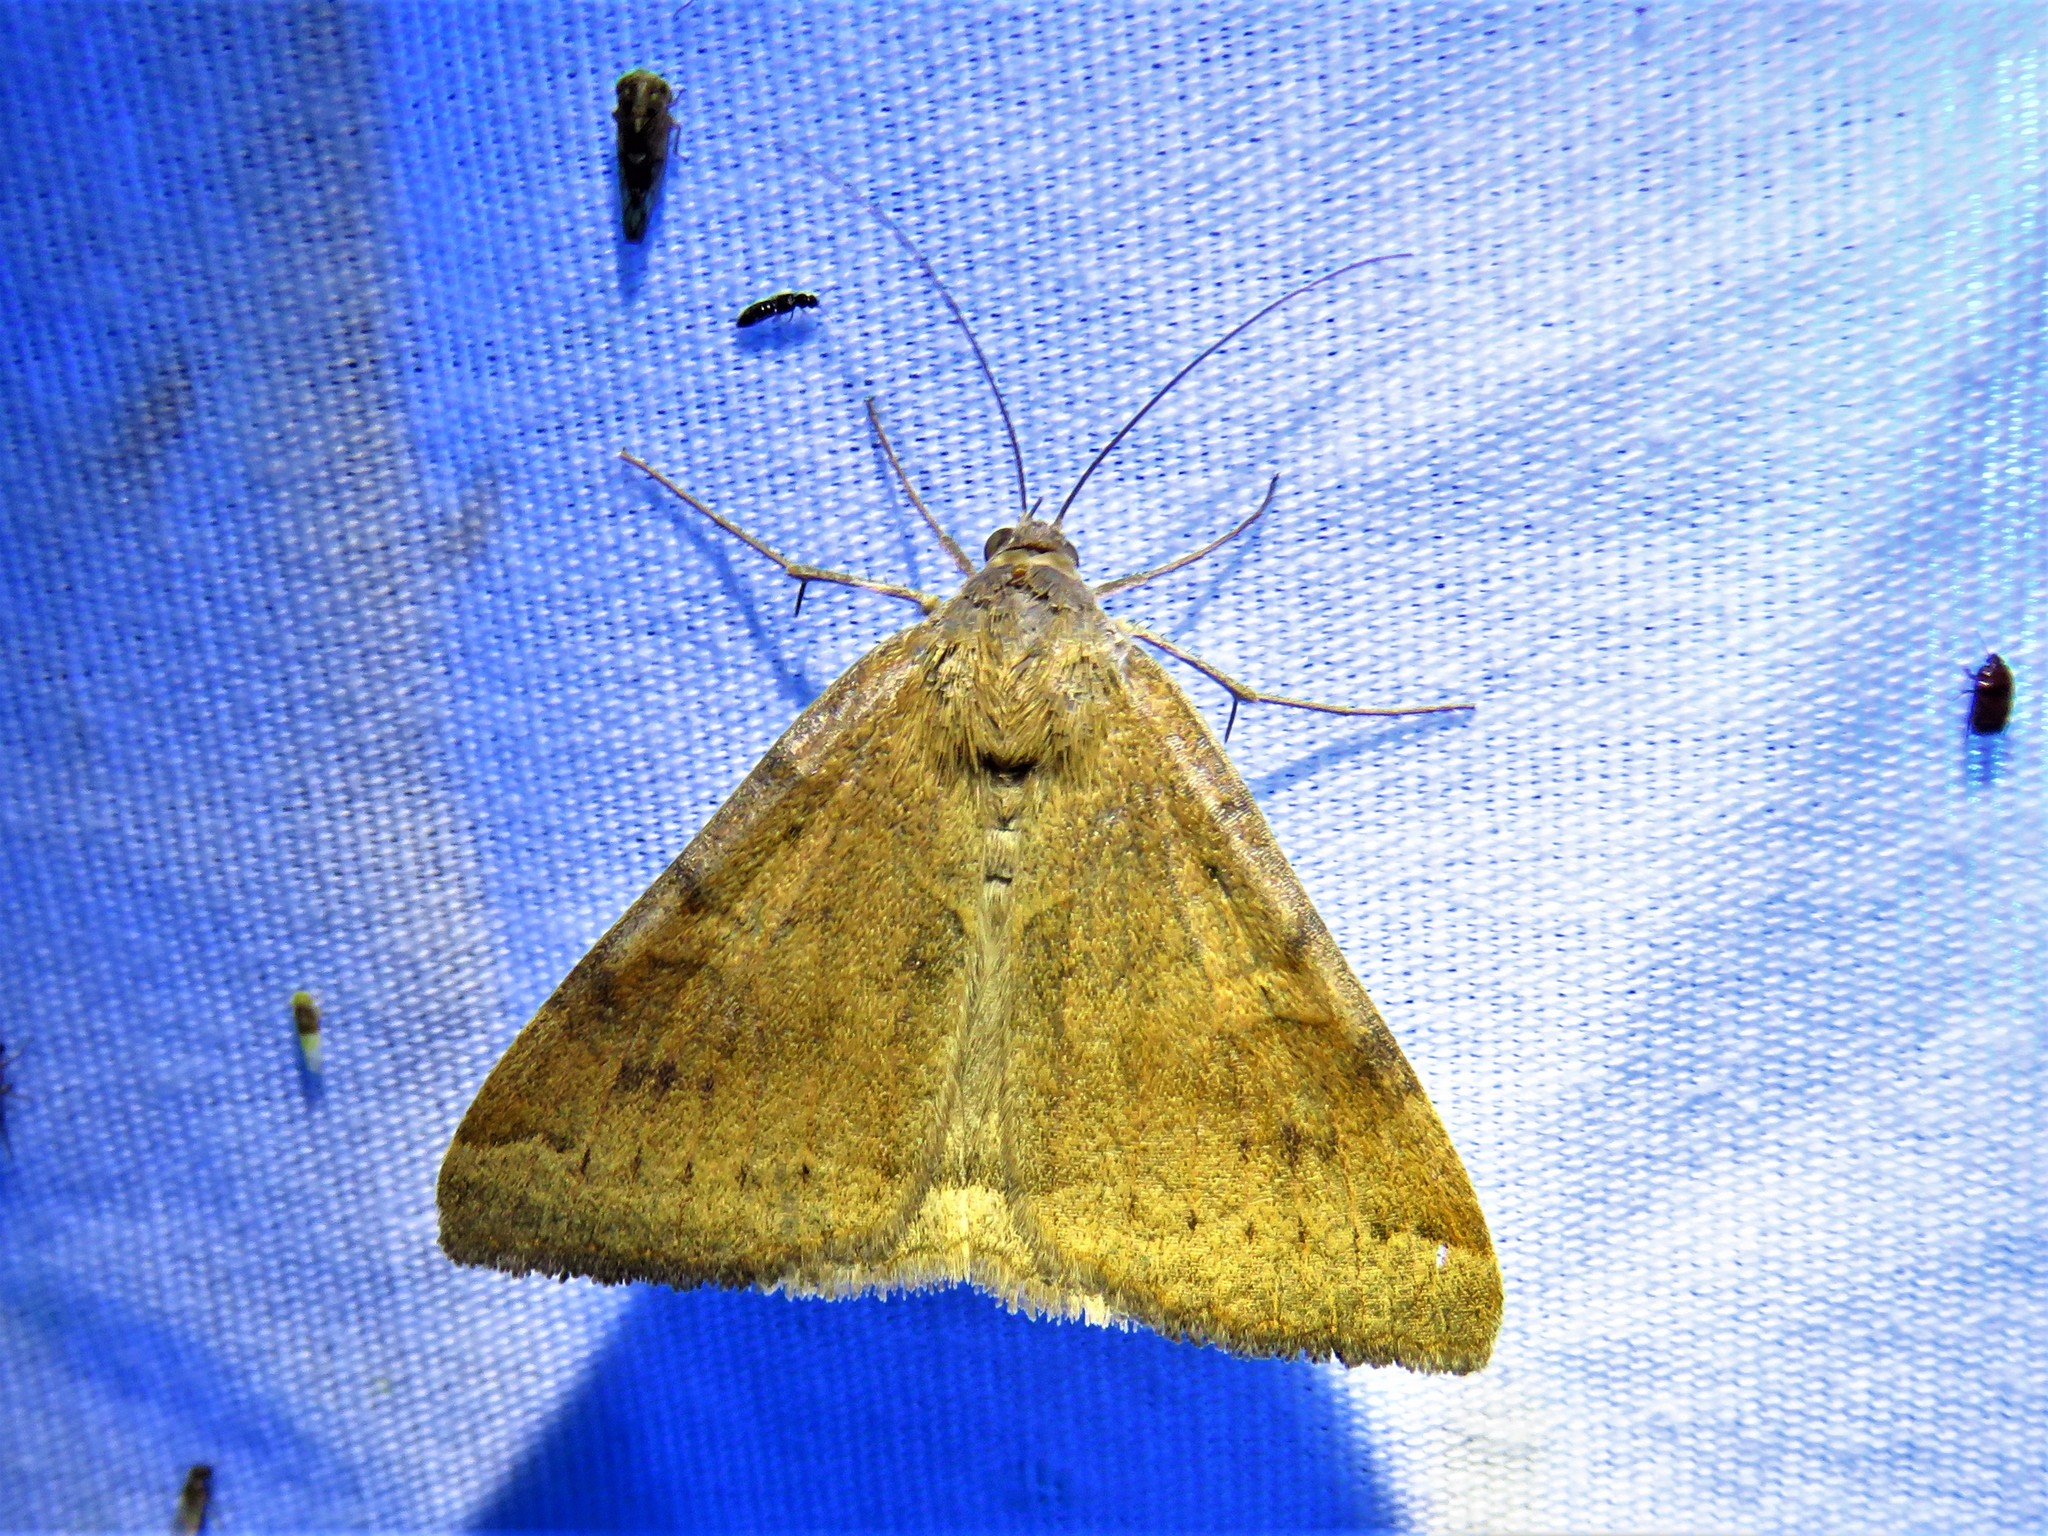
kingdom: Animalia
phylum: Arthropoda
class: Insecta
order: Lepidoptera
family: Erebidae
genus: Caenurgina
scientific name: Caenurgina erechtea
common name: Forage looper moth
